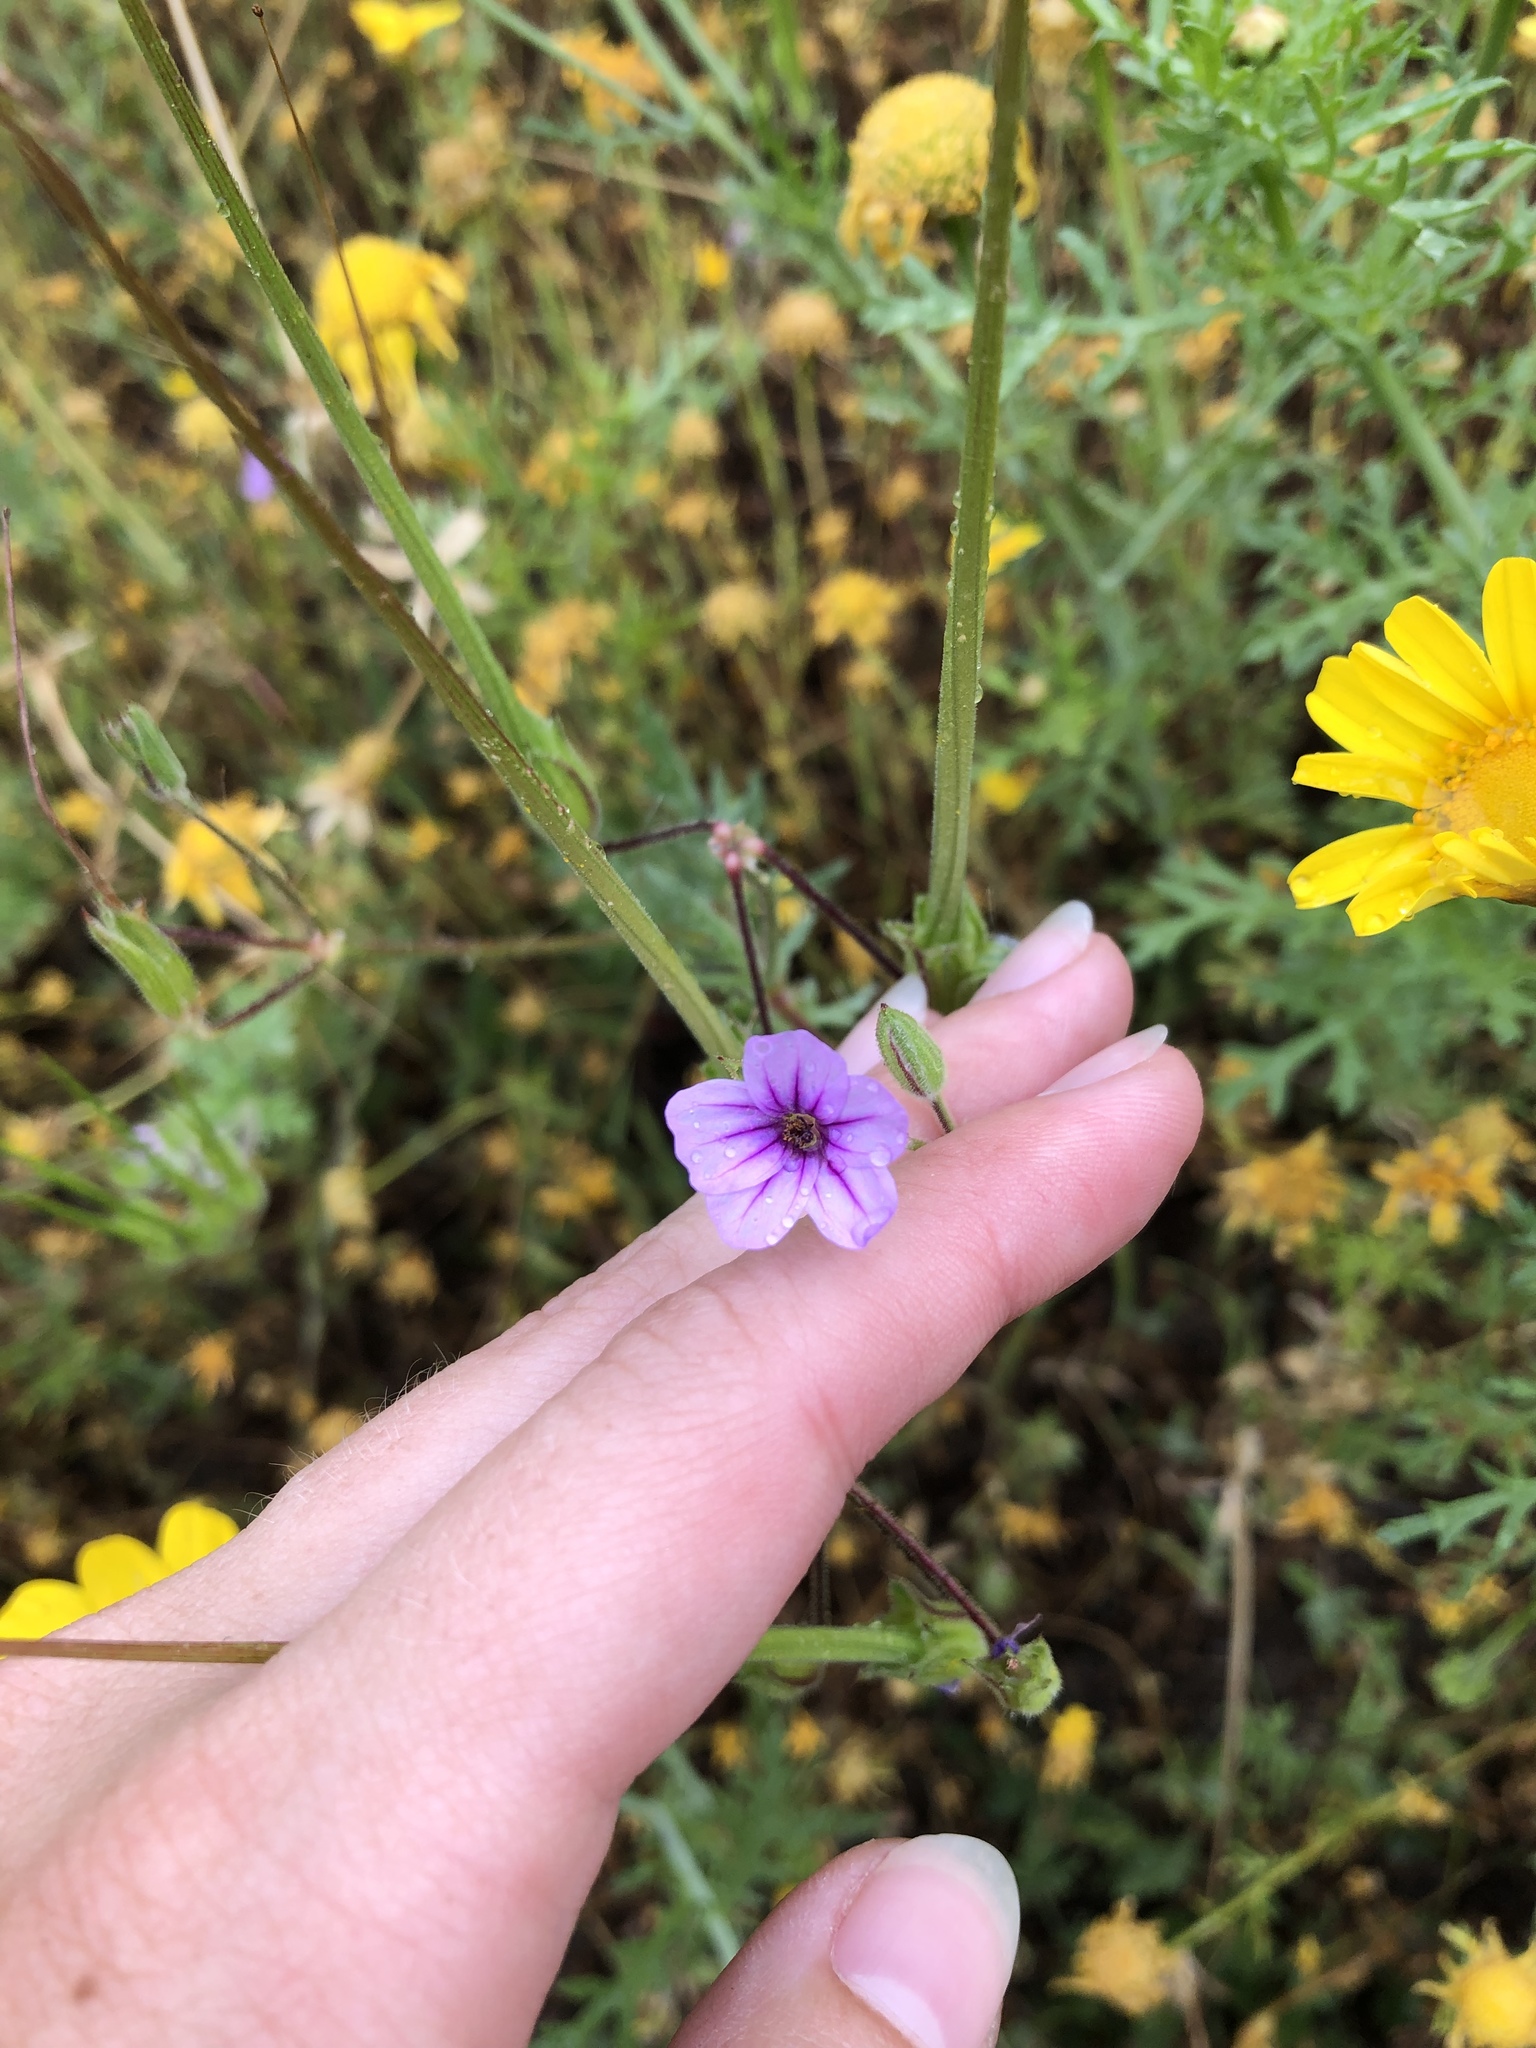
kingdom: Plantae
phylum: Tracheophyta
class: Magnoliopsida
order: Geraniales
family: Geraniaceae
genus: Erodium
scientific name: Erodium botrys
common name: Mediterranean stork's-bill
